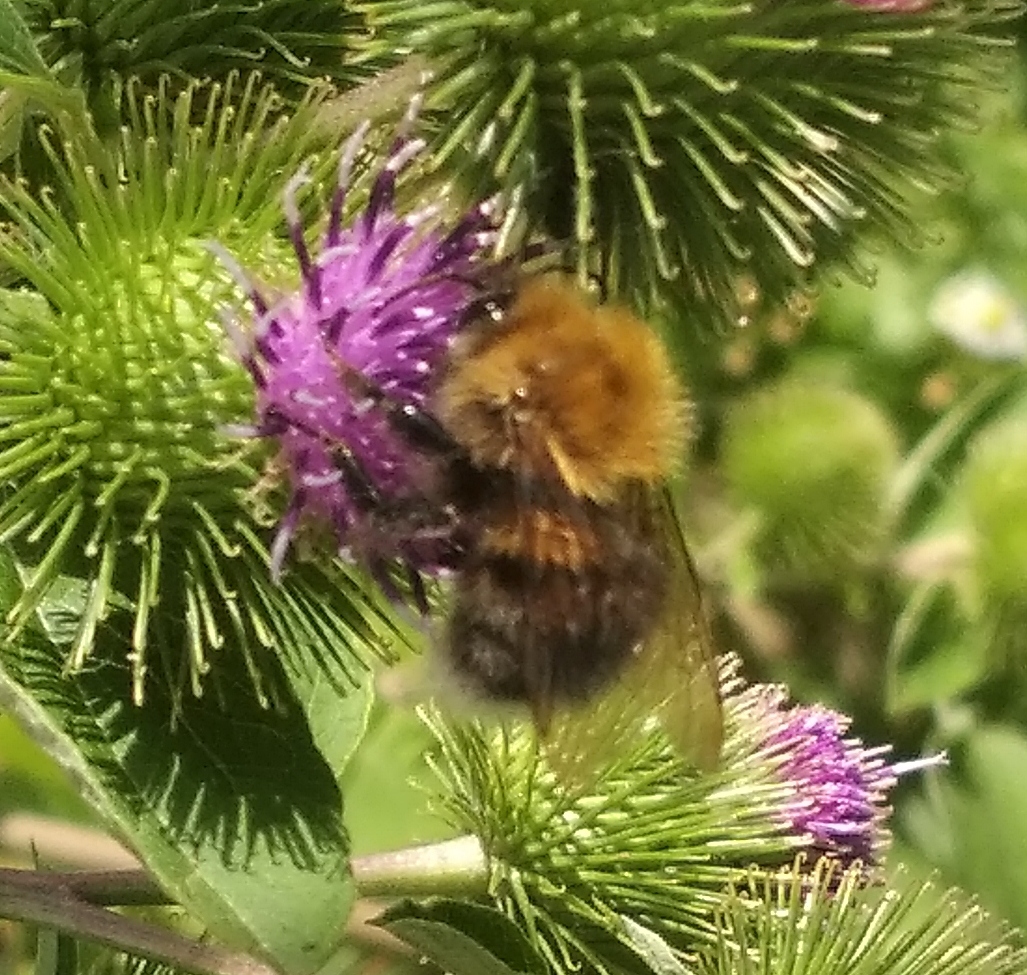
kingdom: Animalia
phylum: Arthropoda
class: Insecta
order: Hymenoptera
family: Apidae
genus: Bombus
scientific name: Bombus hypnorum
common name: New garden bumblebee
